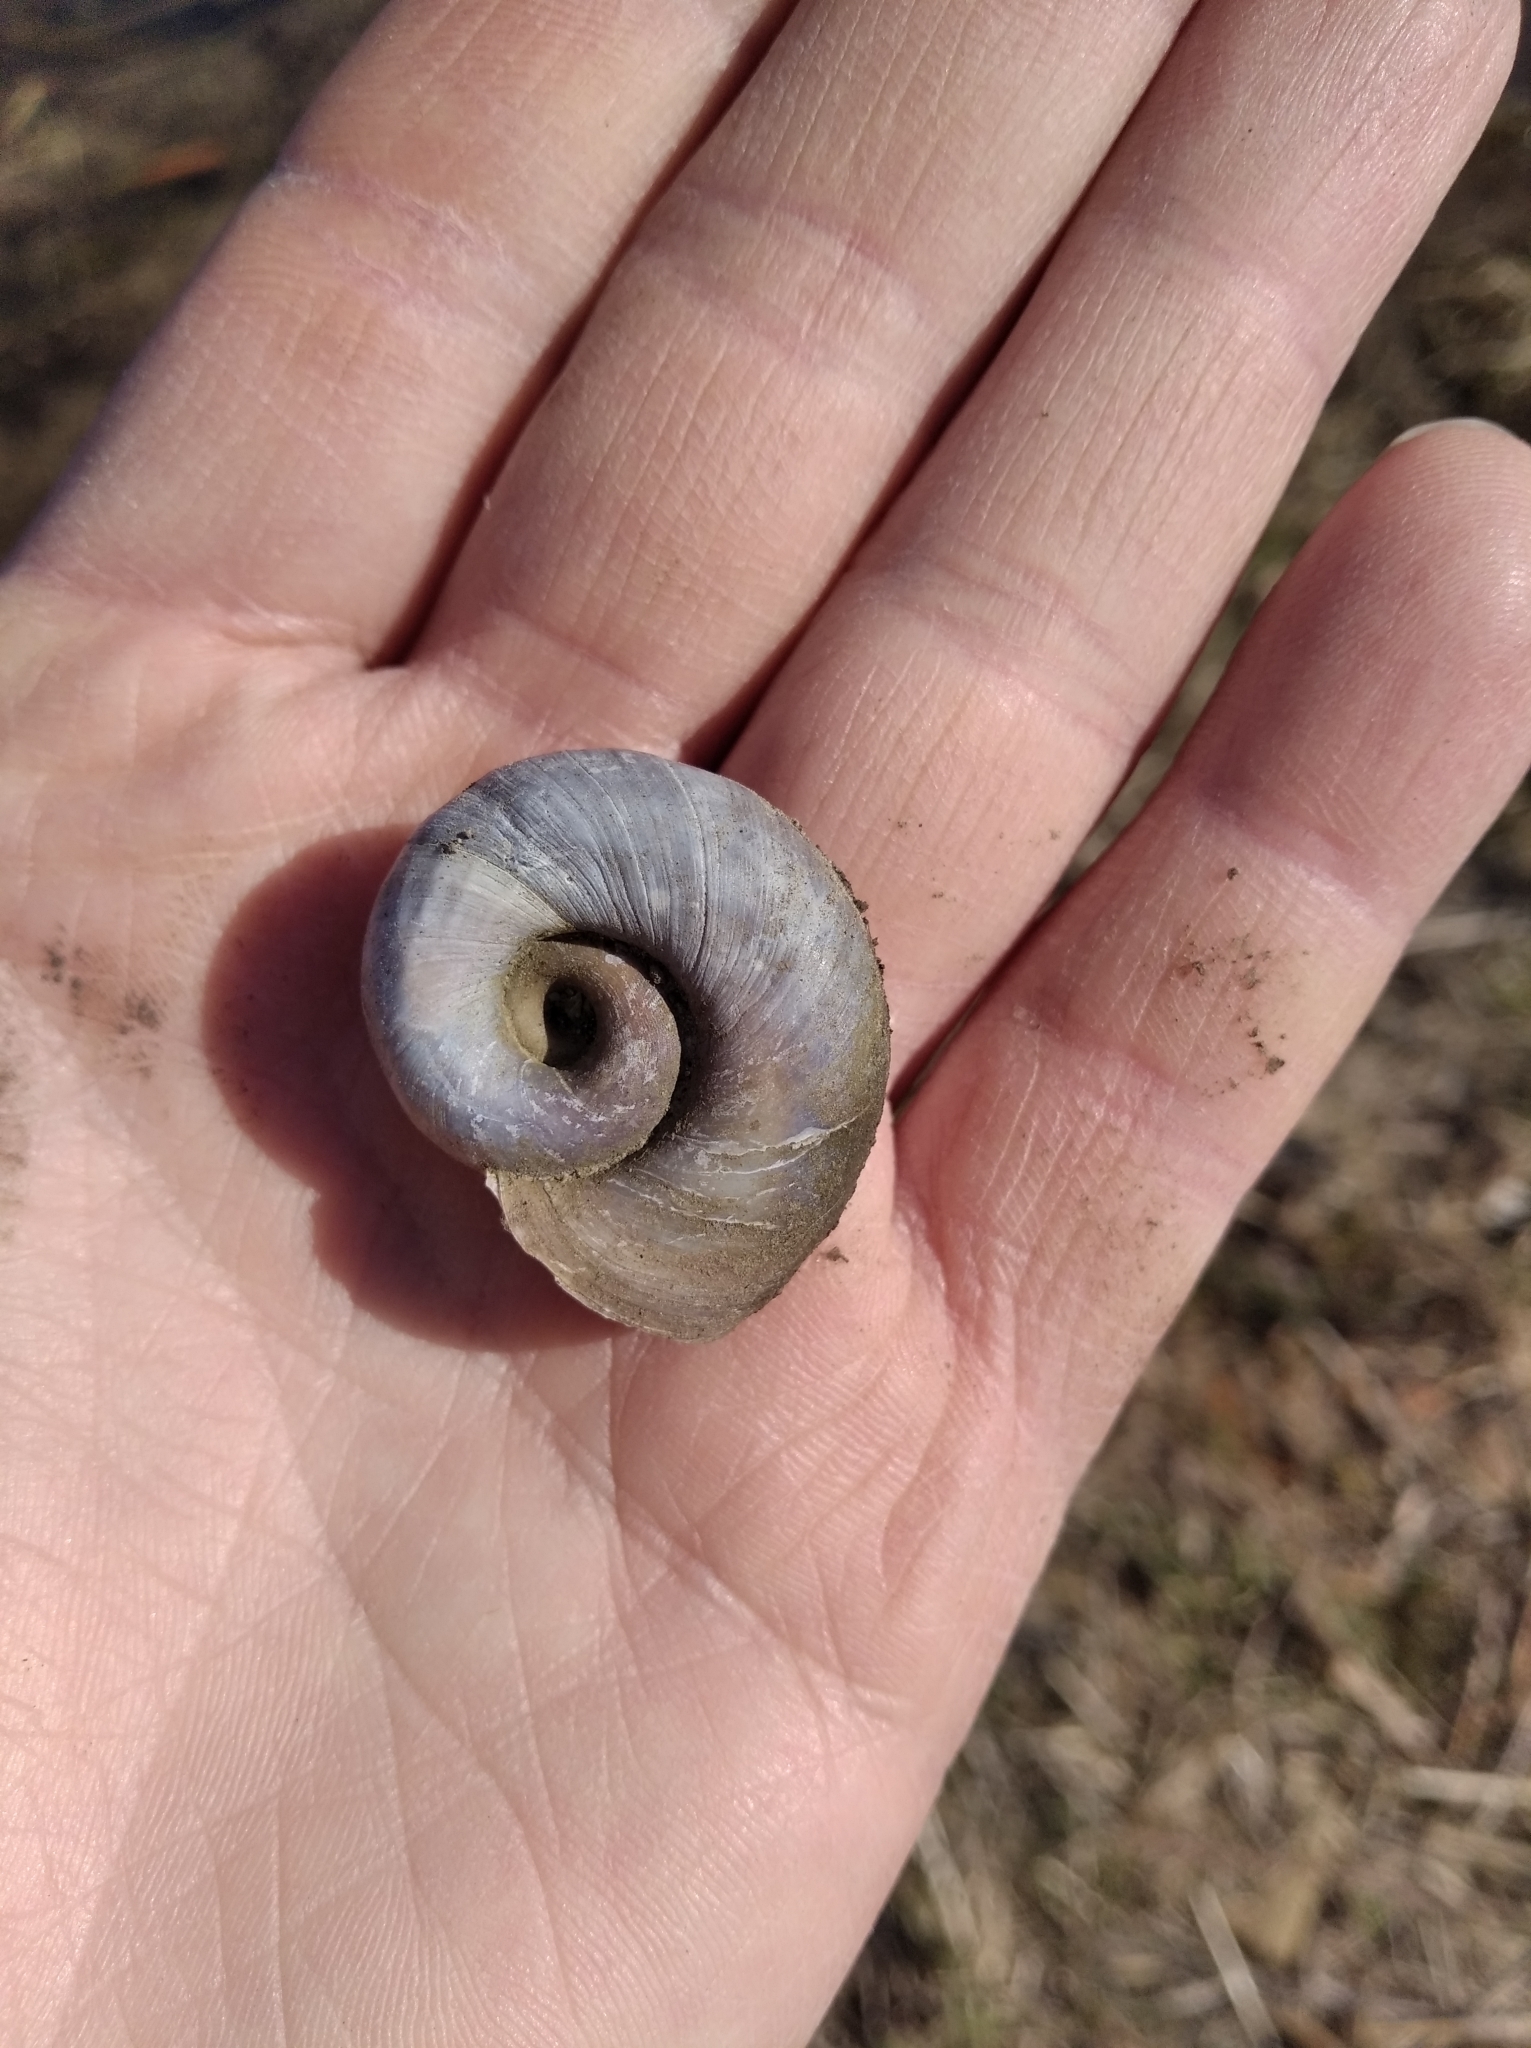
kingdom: Animalia
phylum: Mollusca
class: Gastropoda
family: Planorbidae
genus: Planorbarius
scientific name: Planorbarius corneus
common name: Great ramshorn
